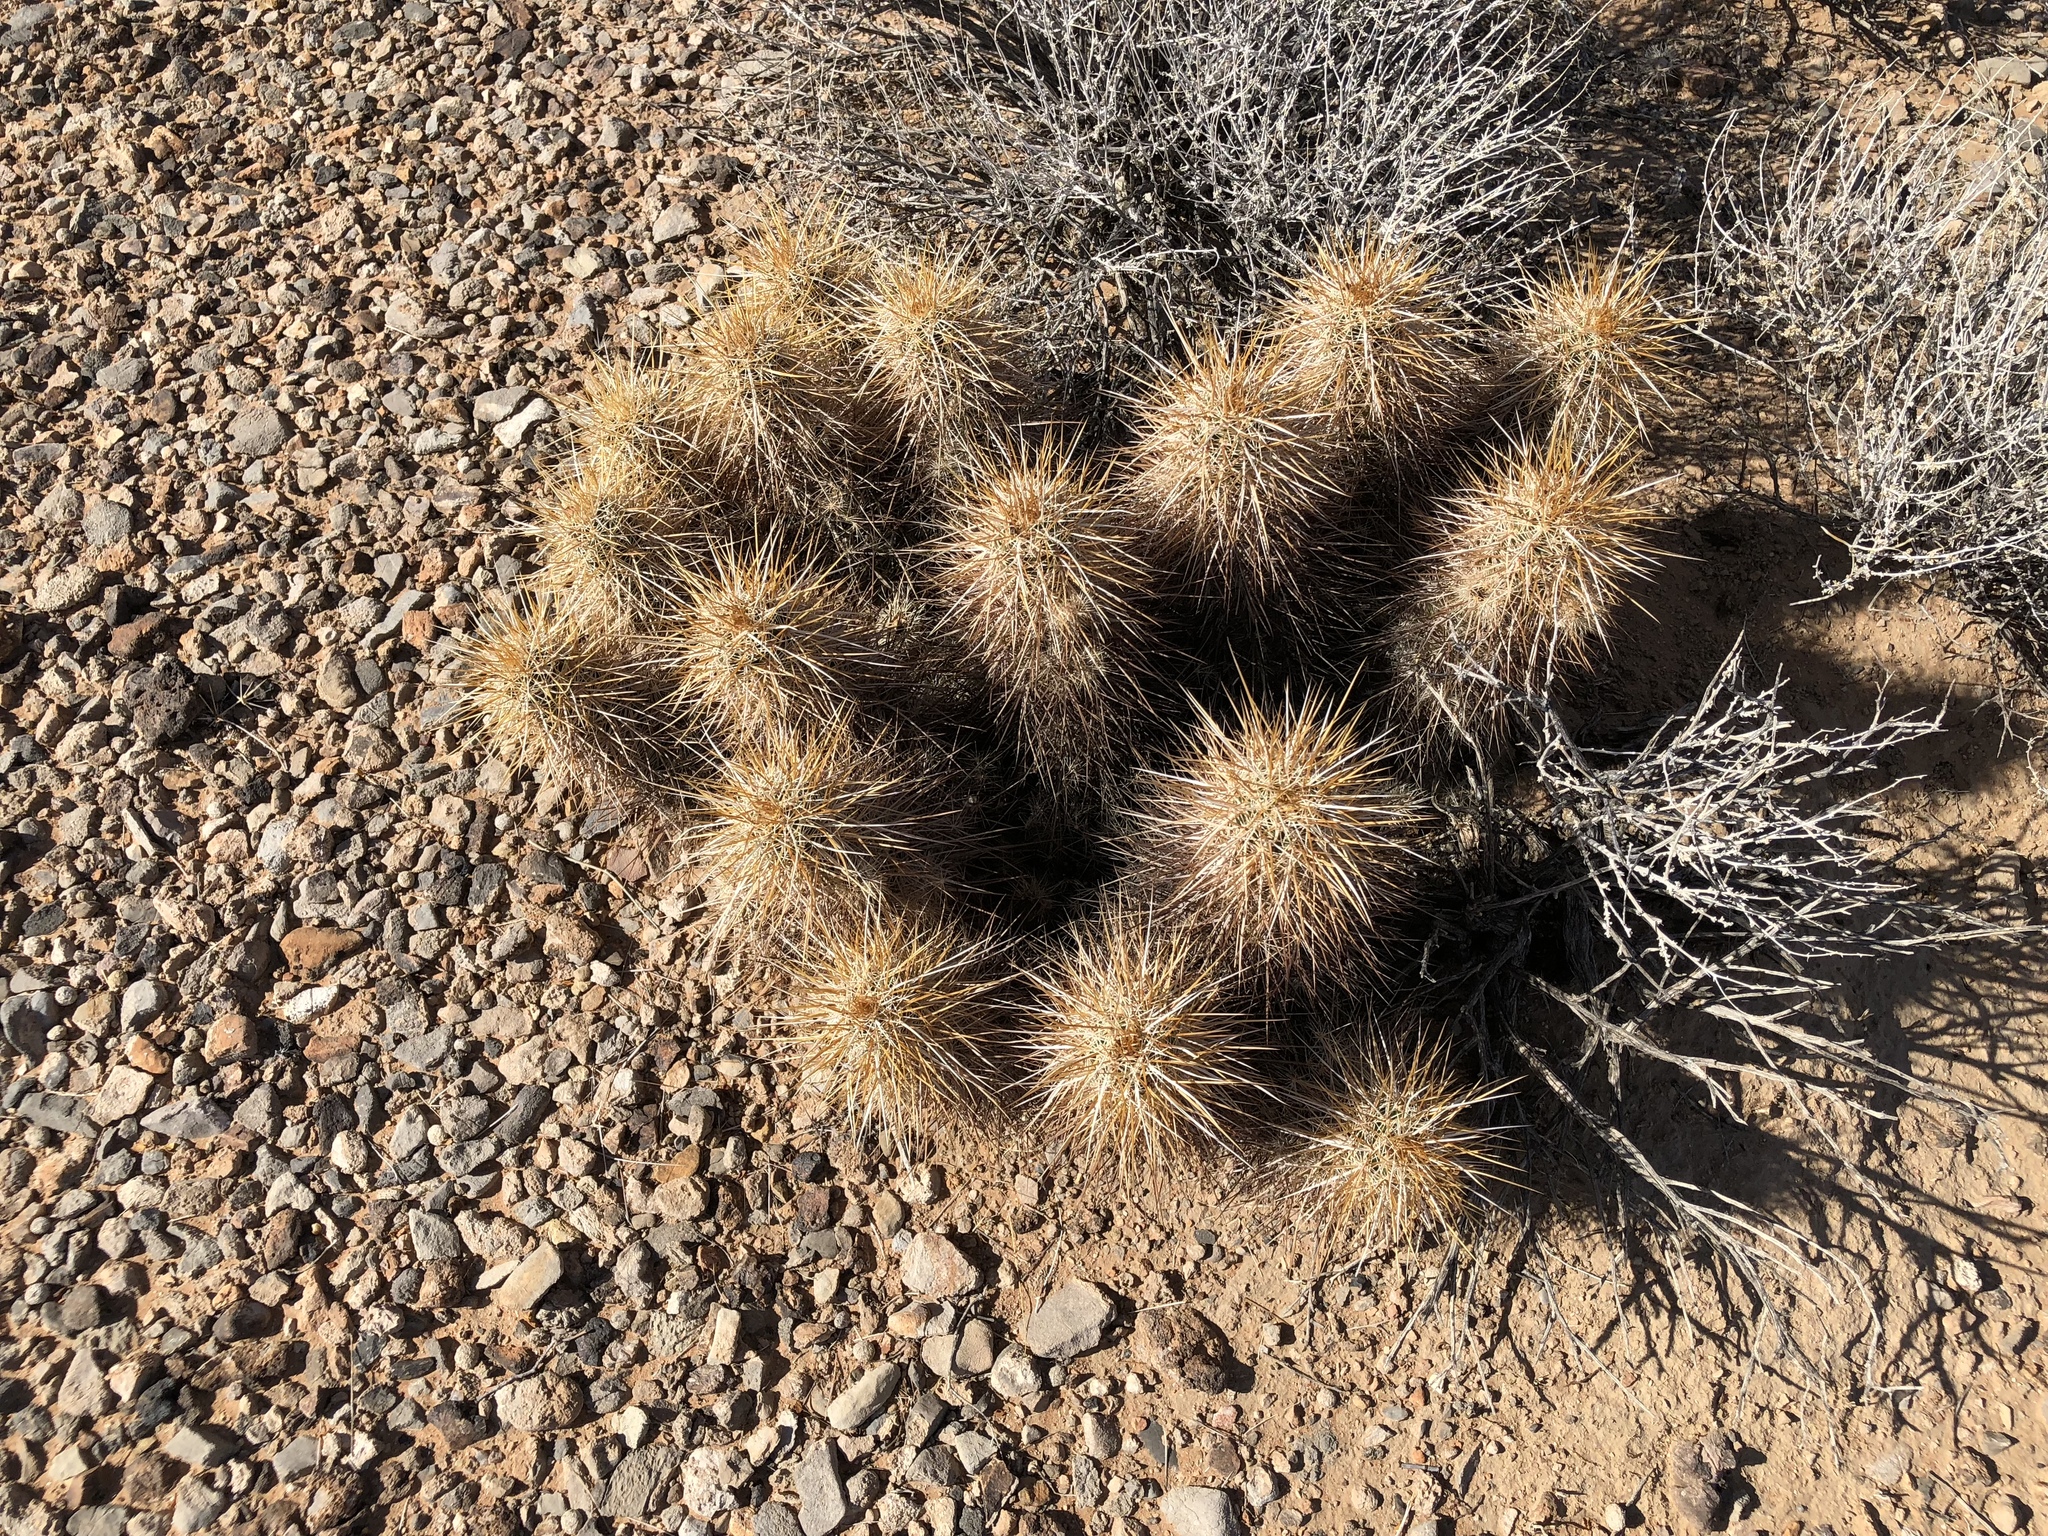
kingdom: Plantae
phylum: Tracheophyta
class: Magnoliopsida
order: Caryophyllales
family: Cactaceae
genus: Echinocereus
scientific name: Echinocereus engelmannii
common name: Engelmann's hedgehog cactus
